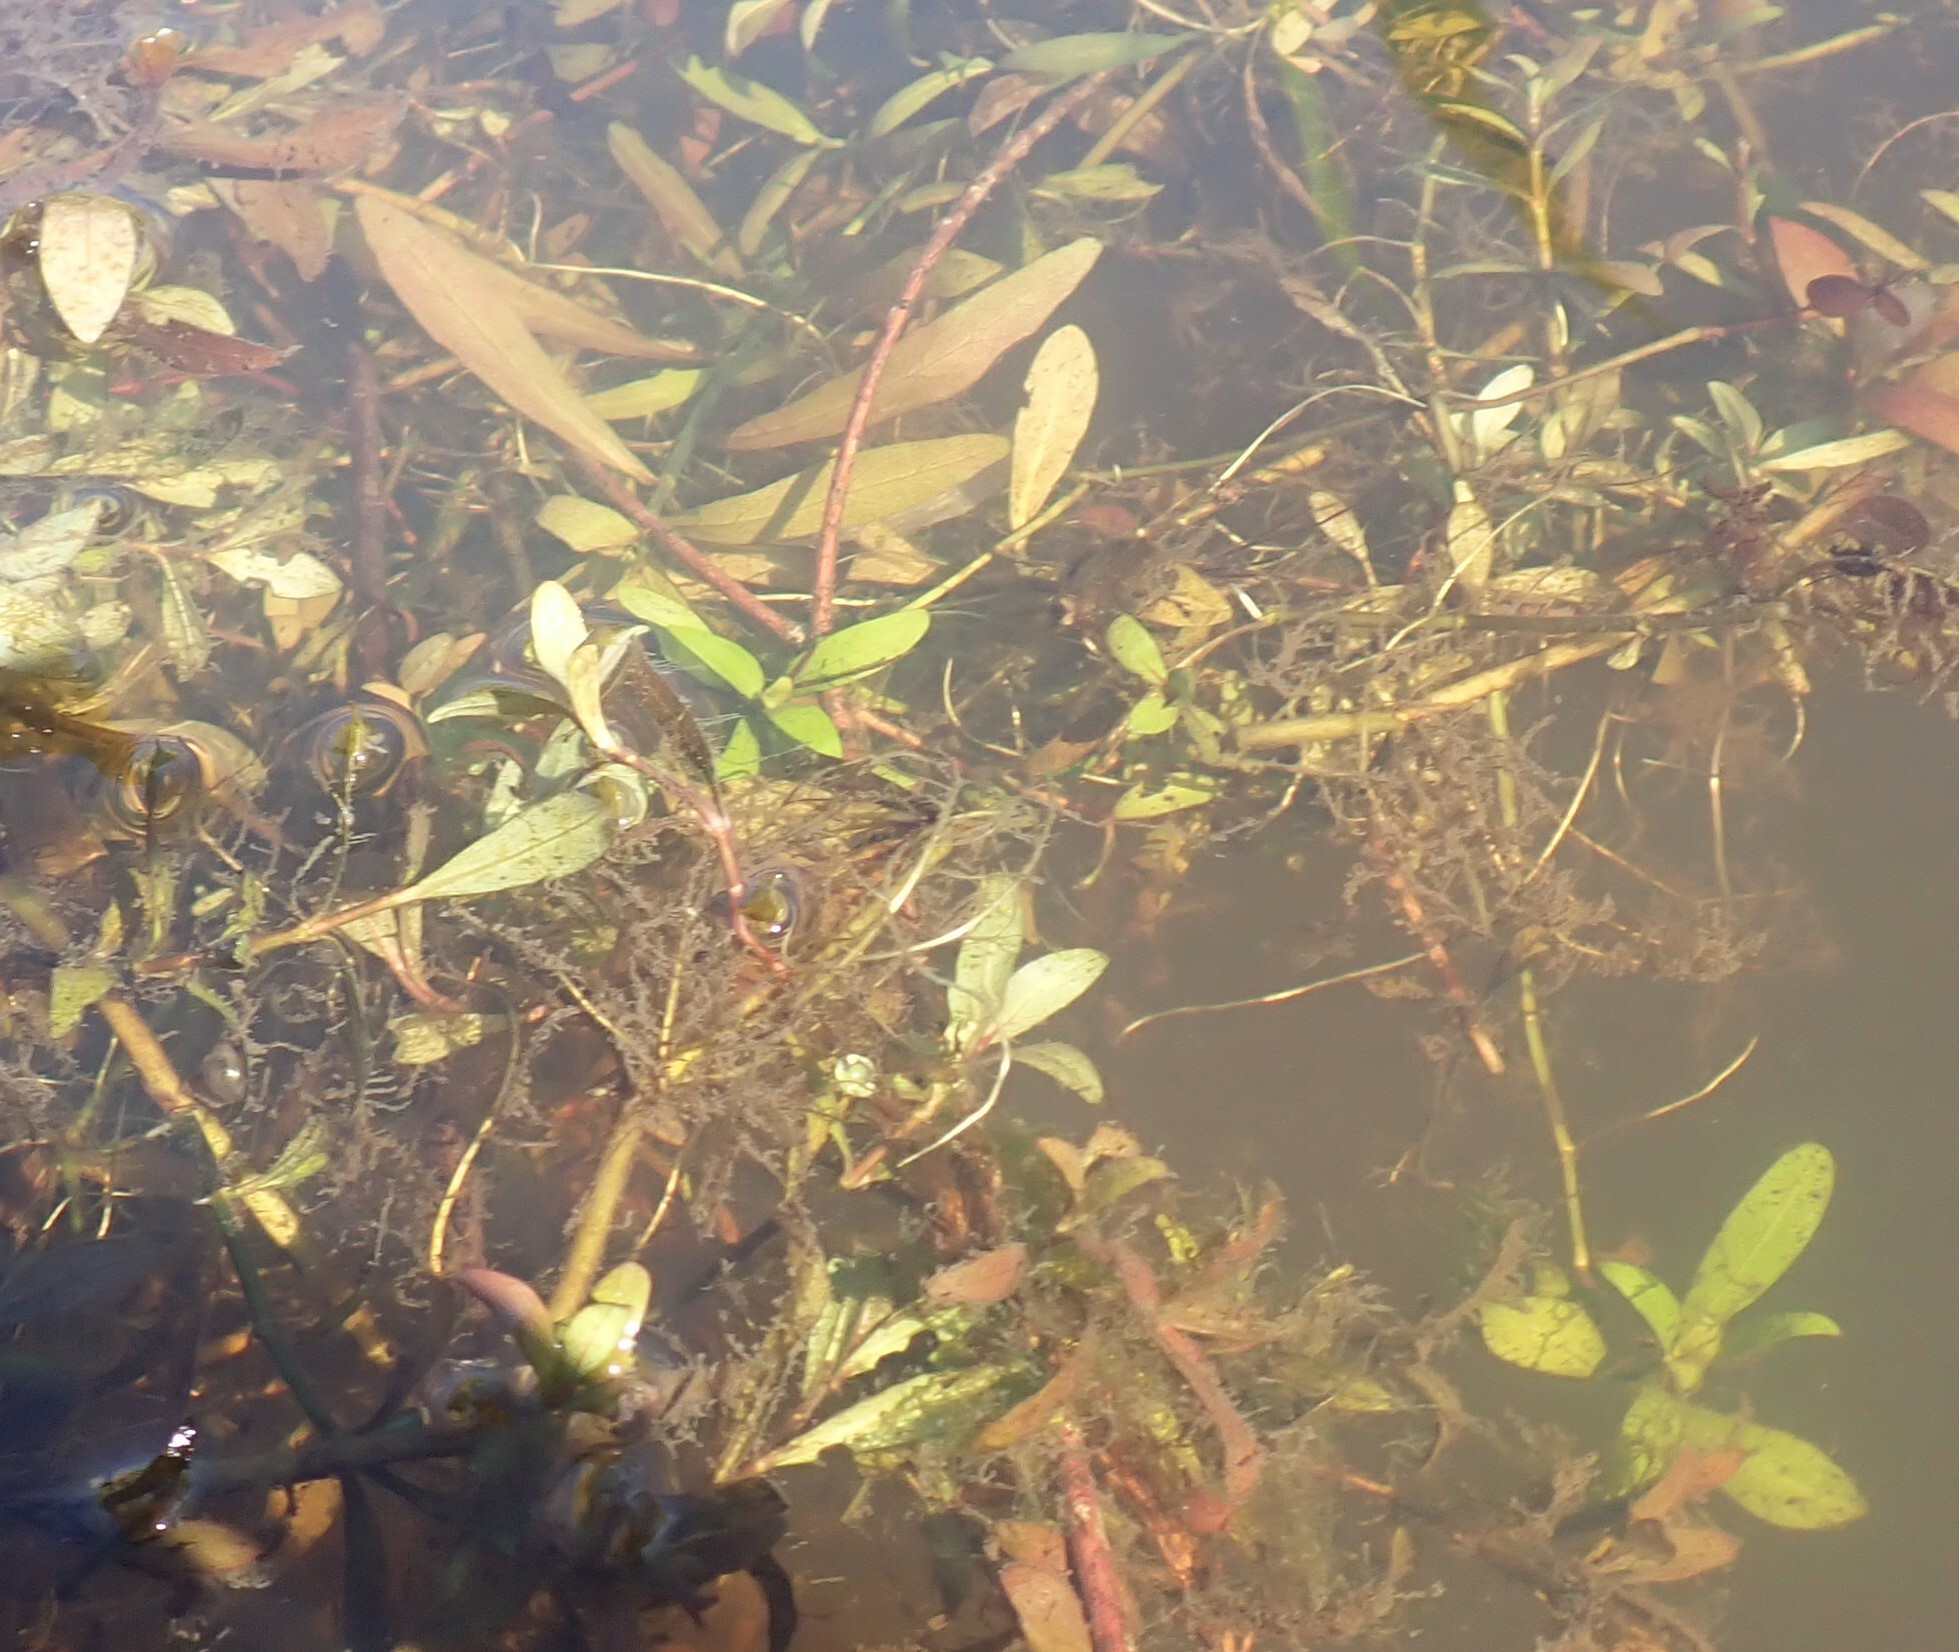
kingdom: Plantae
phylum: Tracheophyta
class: Magnoliopsida
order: Lamiales
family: Acanthaceae
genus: Hygrophila
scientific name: Hygrophila polysperma
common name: Indian swampweed
